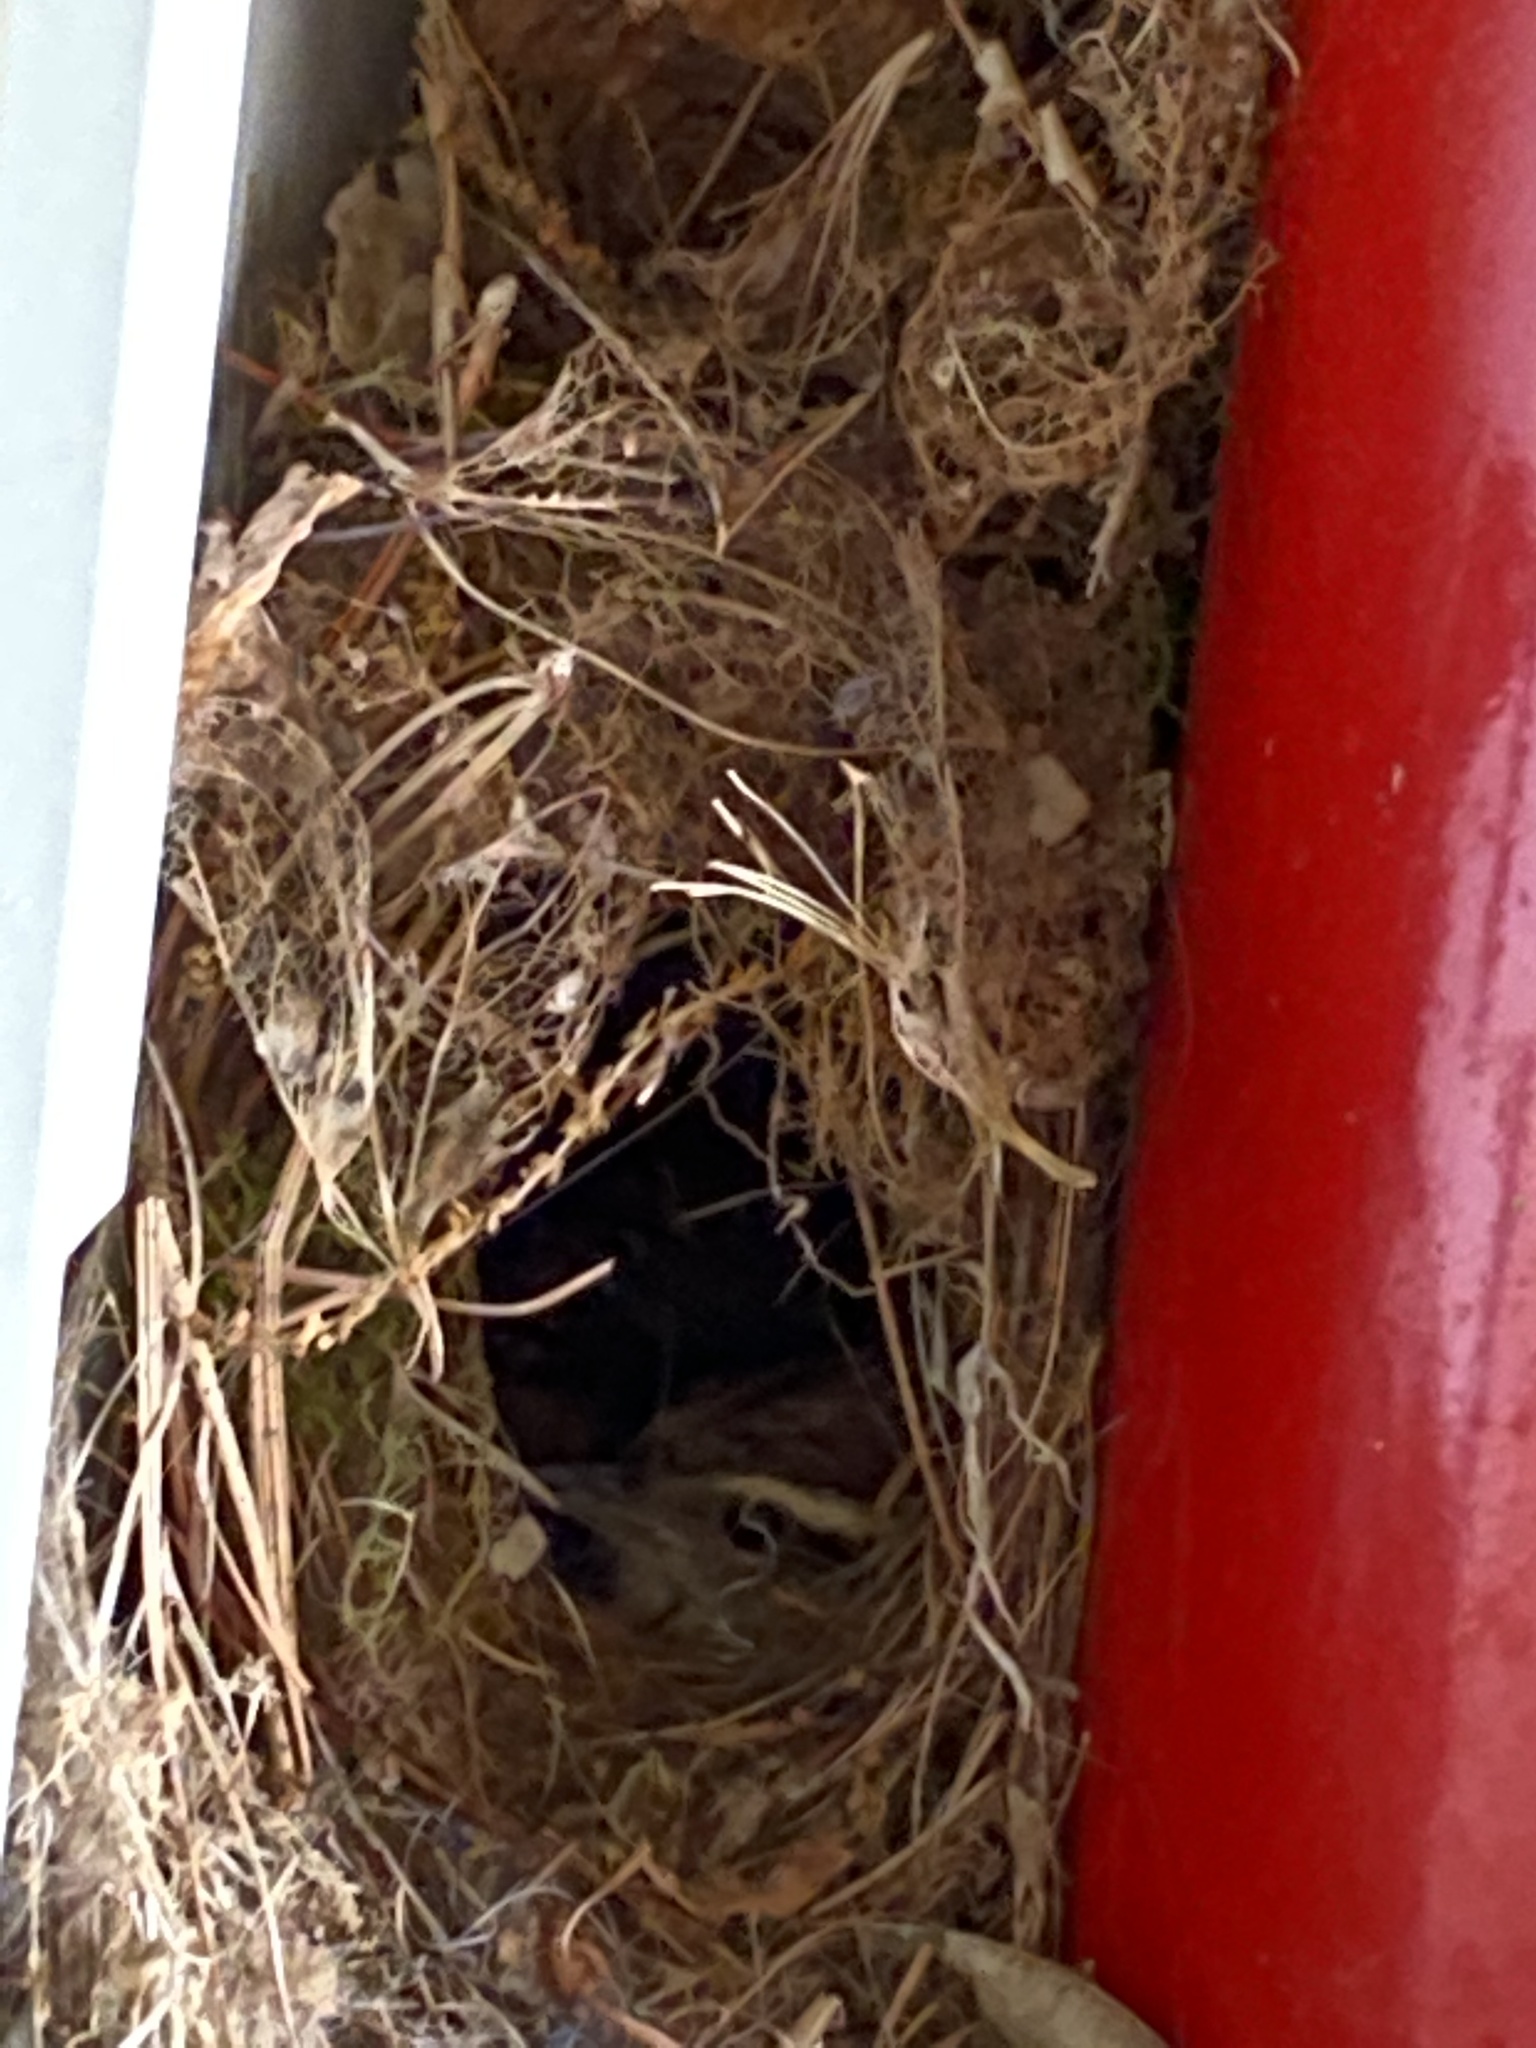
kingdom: Animalia
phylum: Chordata
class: Aves
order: Passeriformes
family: Troglodytidae
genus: Thryothorus
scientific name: Thryothorus ludovicianus
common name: Carolina wren
